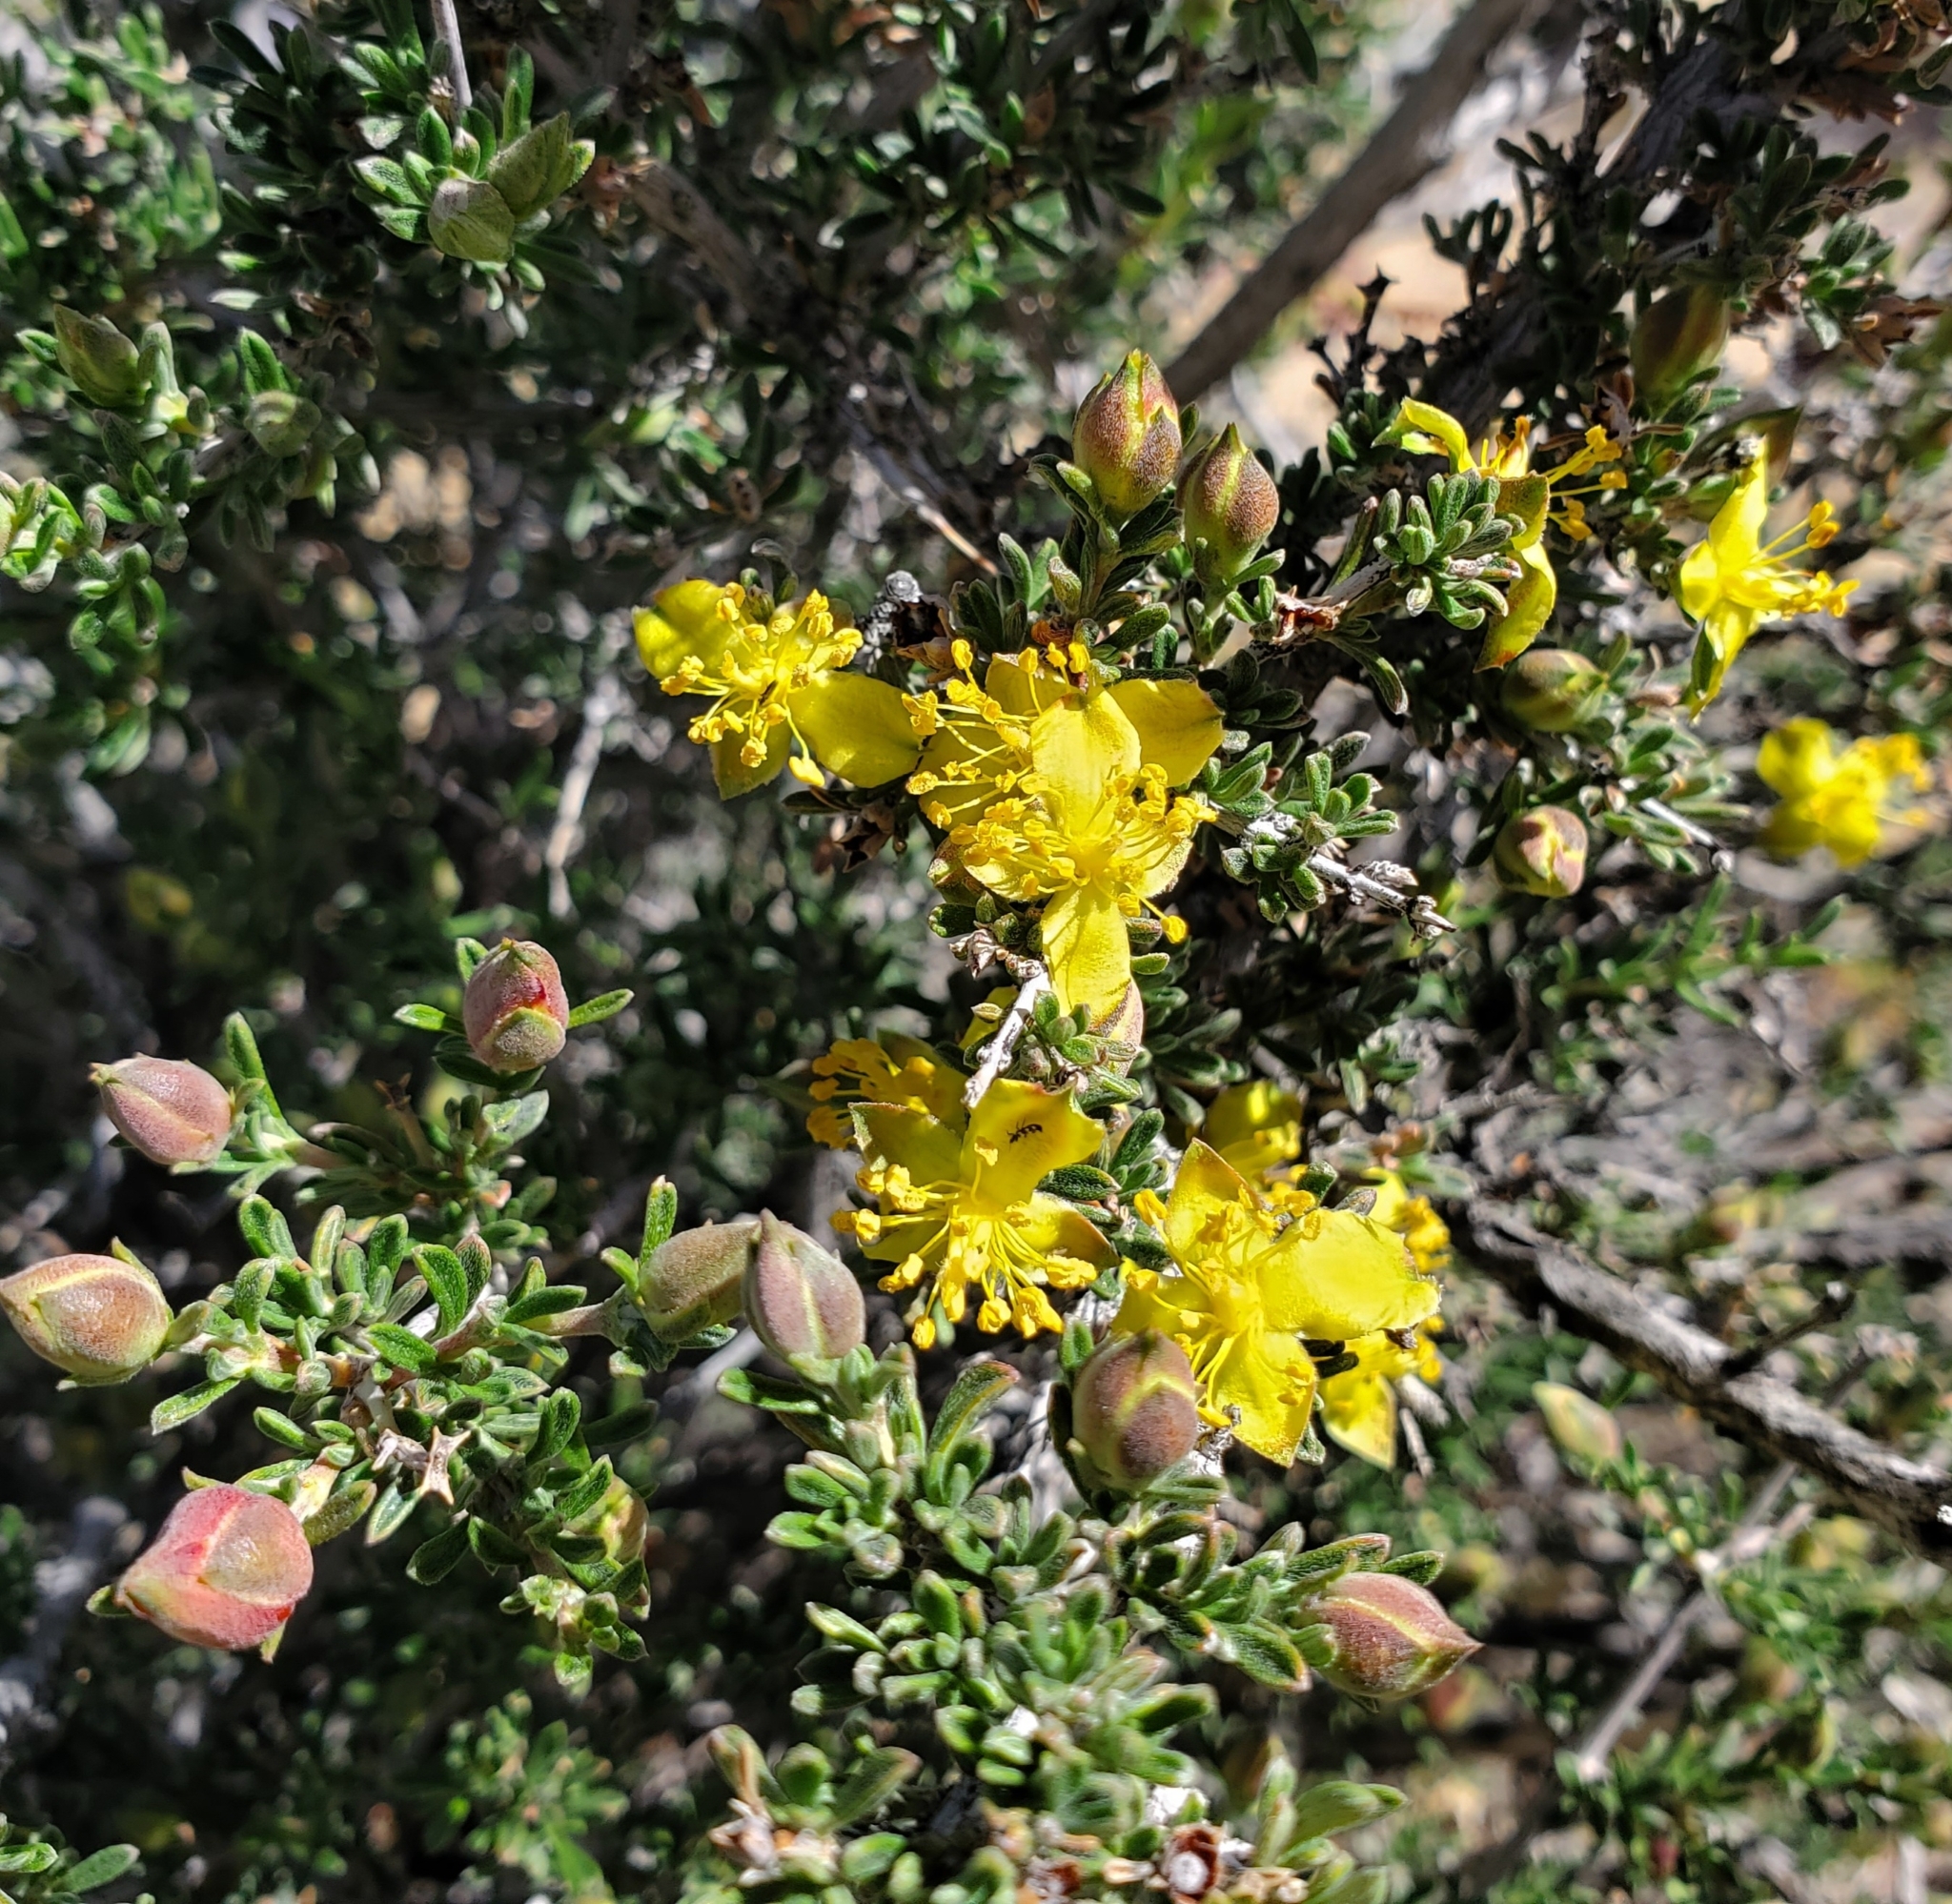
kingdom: Plantae
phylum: Tracheophyta
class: Magnoliopsida
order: Rosales
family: Rosaceae
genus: Coleogyne
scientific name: Coleogyne ramosissima
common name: Blackbrush
